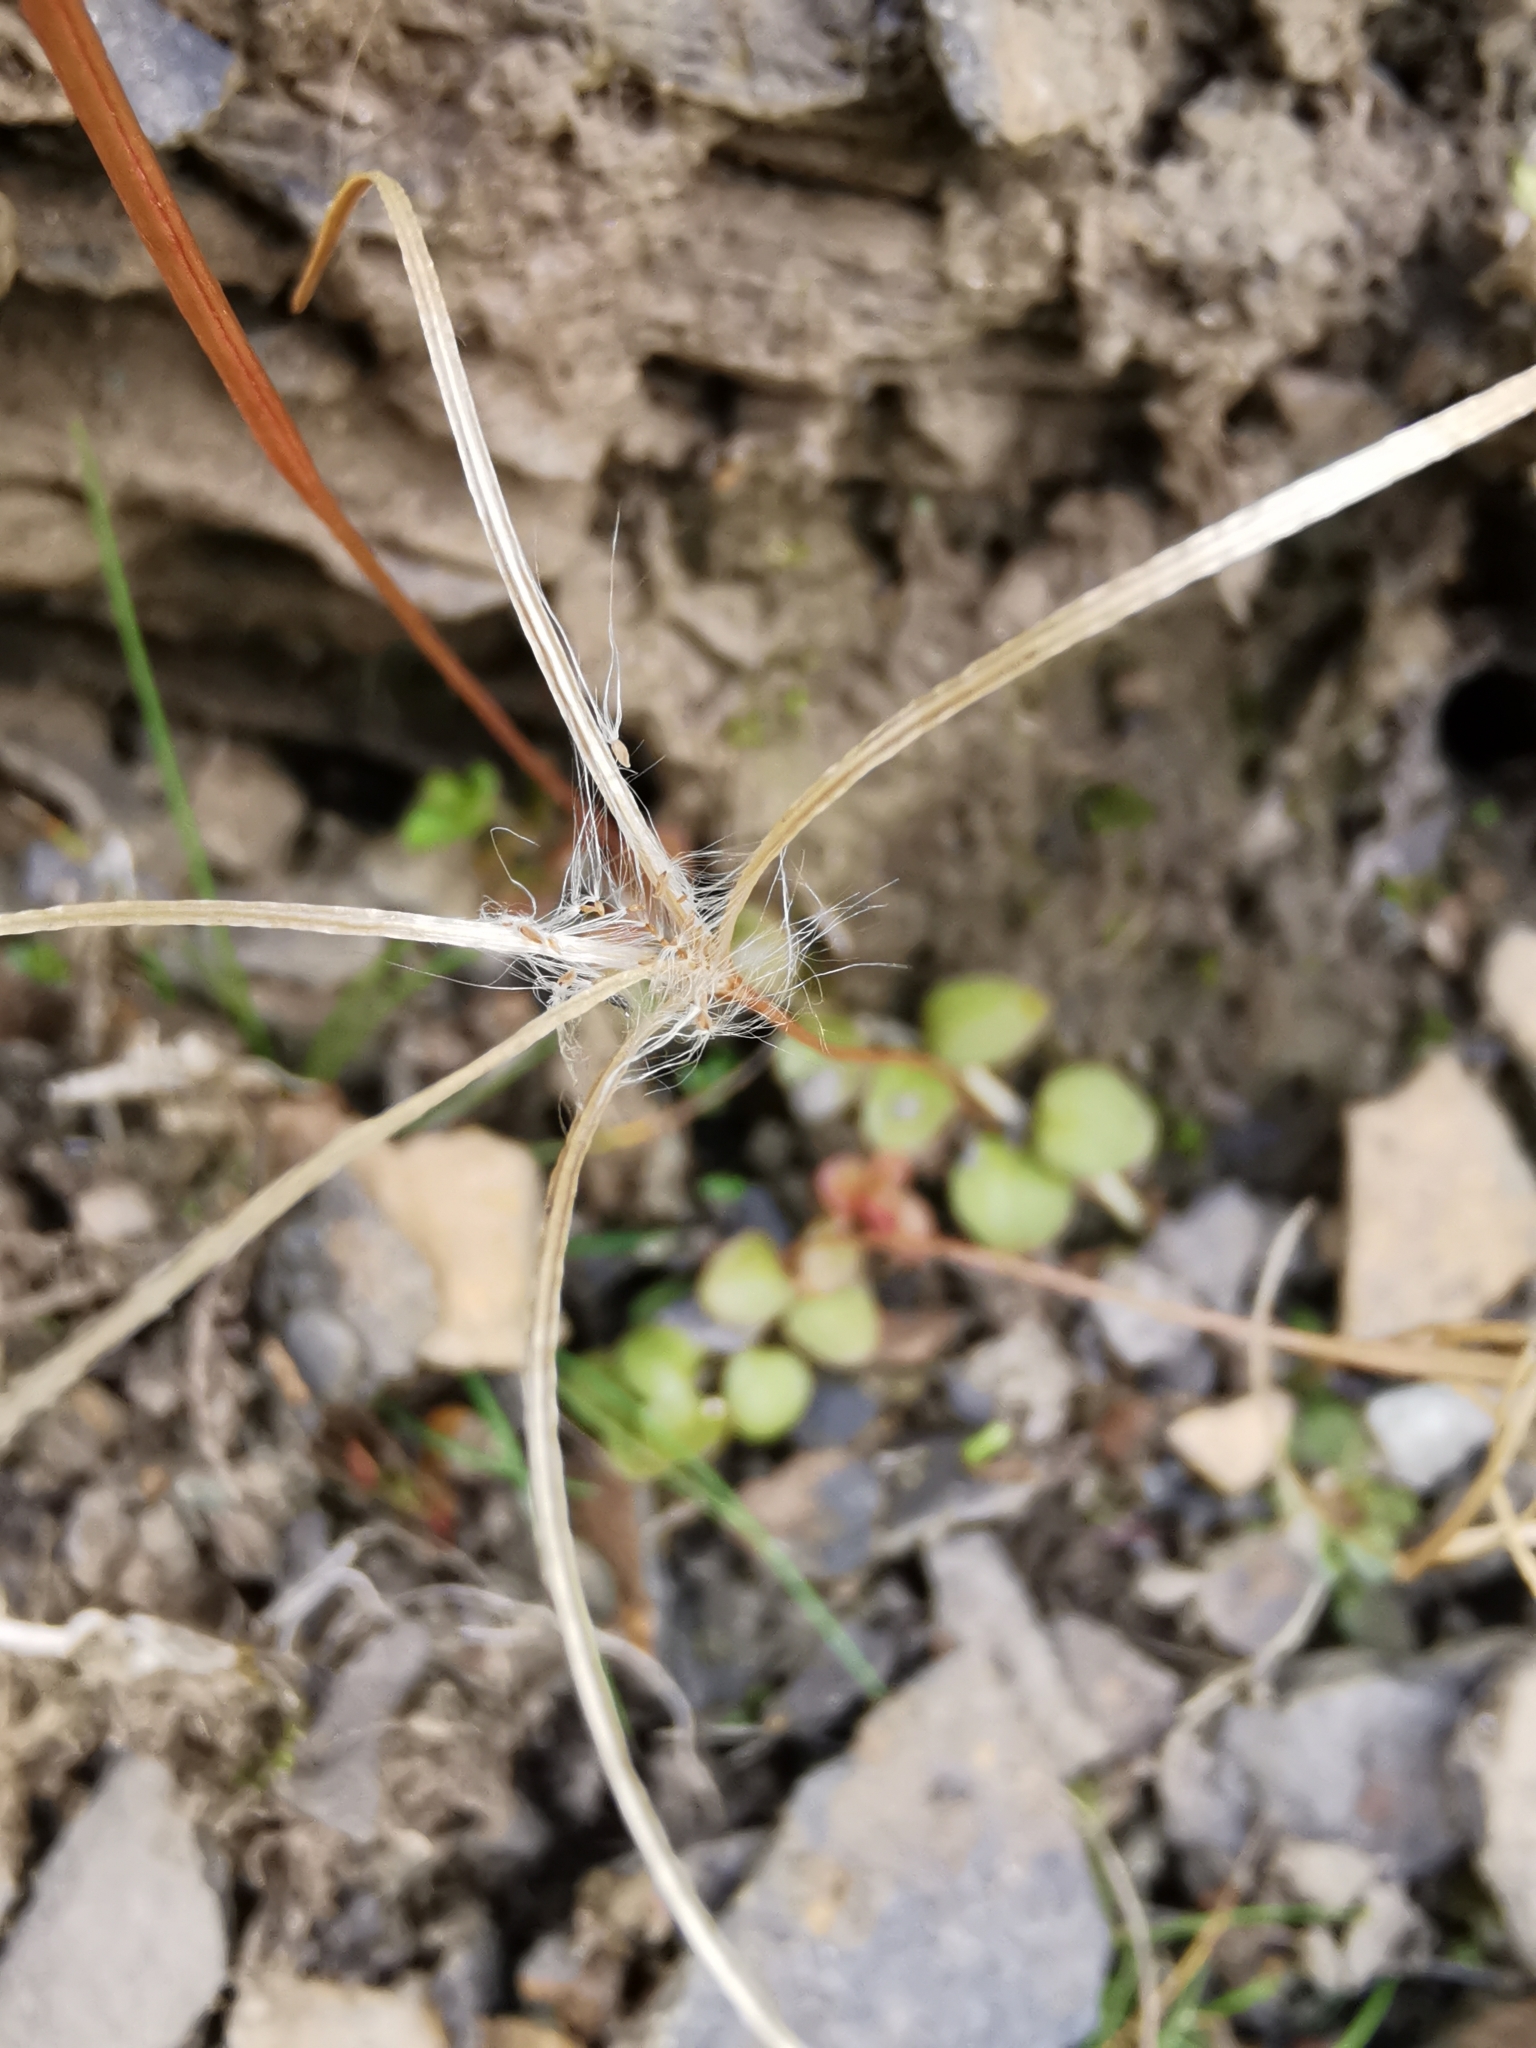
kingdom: Plantae
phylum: Tracheophyta
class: Magnoliopsida
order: Myrtales
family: Onagraceae
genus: Epilobium
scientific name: Epilobium brunnescens
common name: New zealand willowherb
